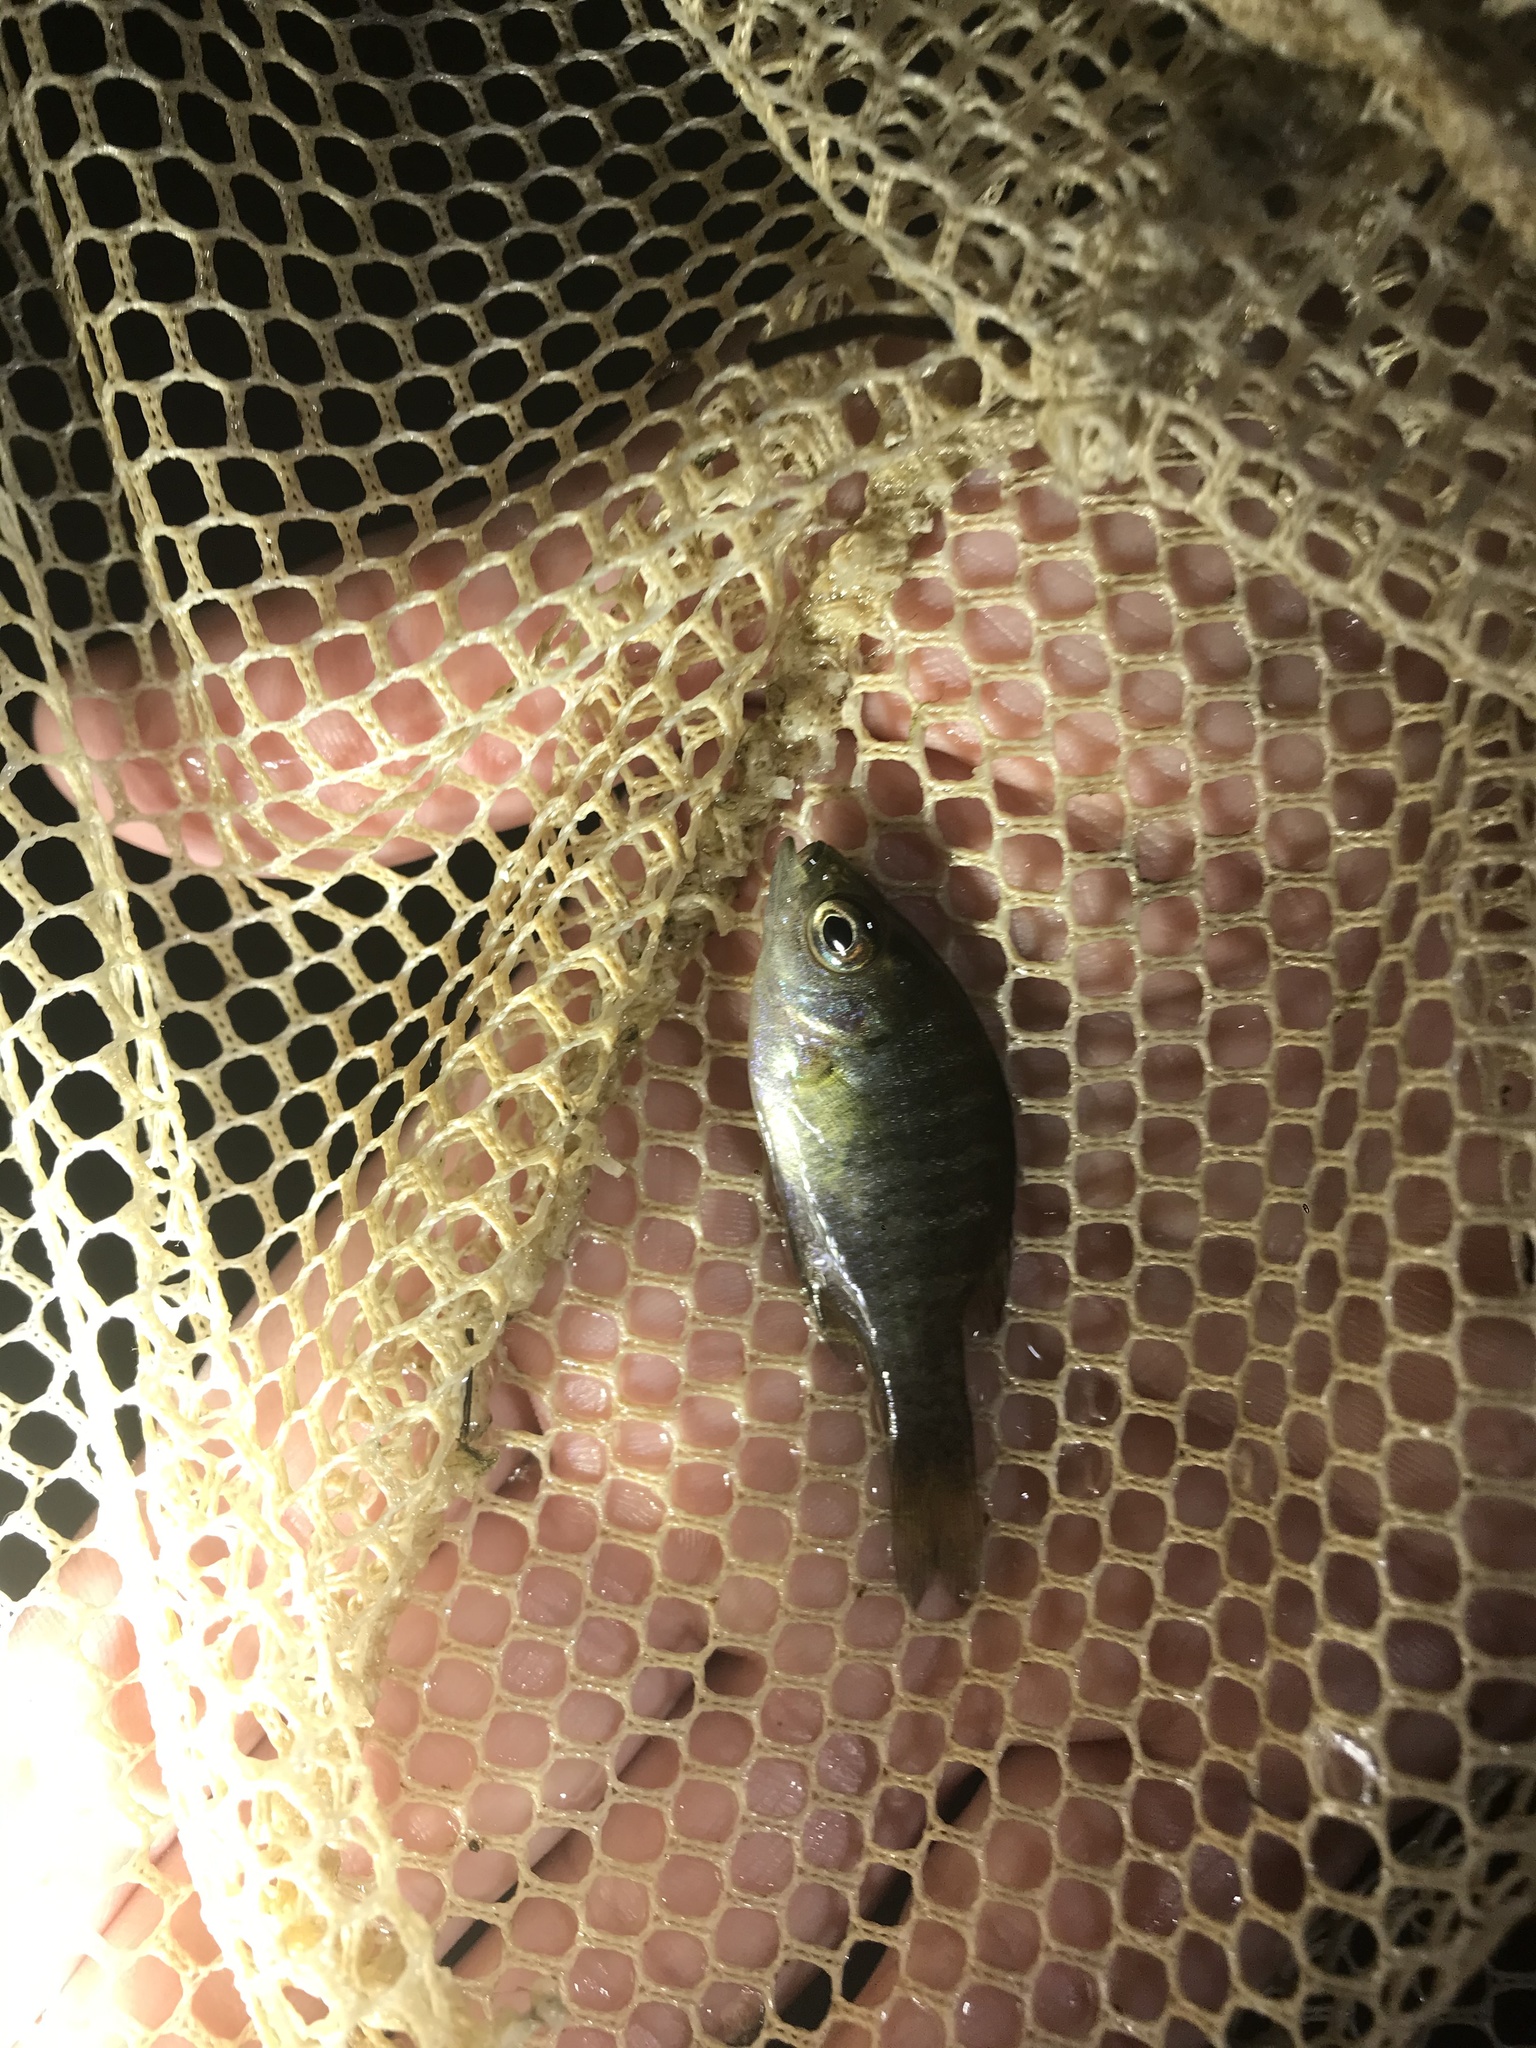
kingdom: Animalia
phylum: Chordata
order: Perciformes
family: Centrarchidae
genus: Lepomis
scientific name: Lepomis macrochirus
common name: Bluegill
